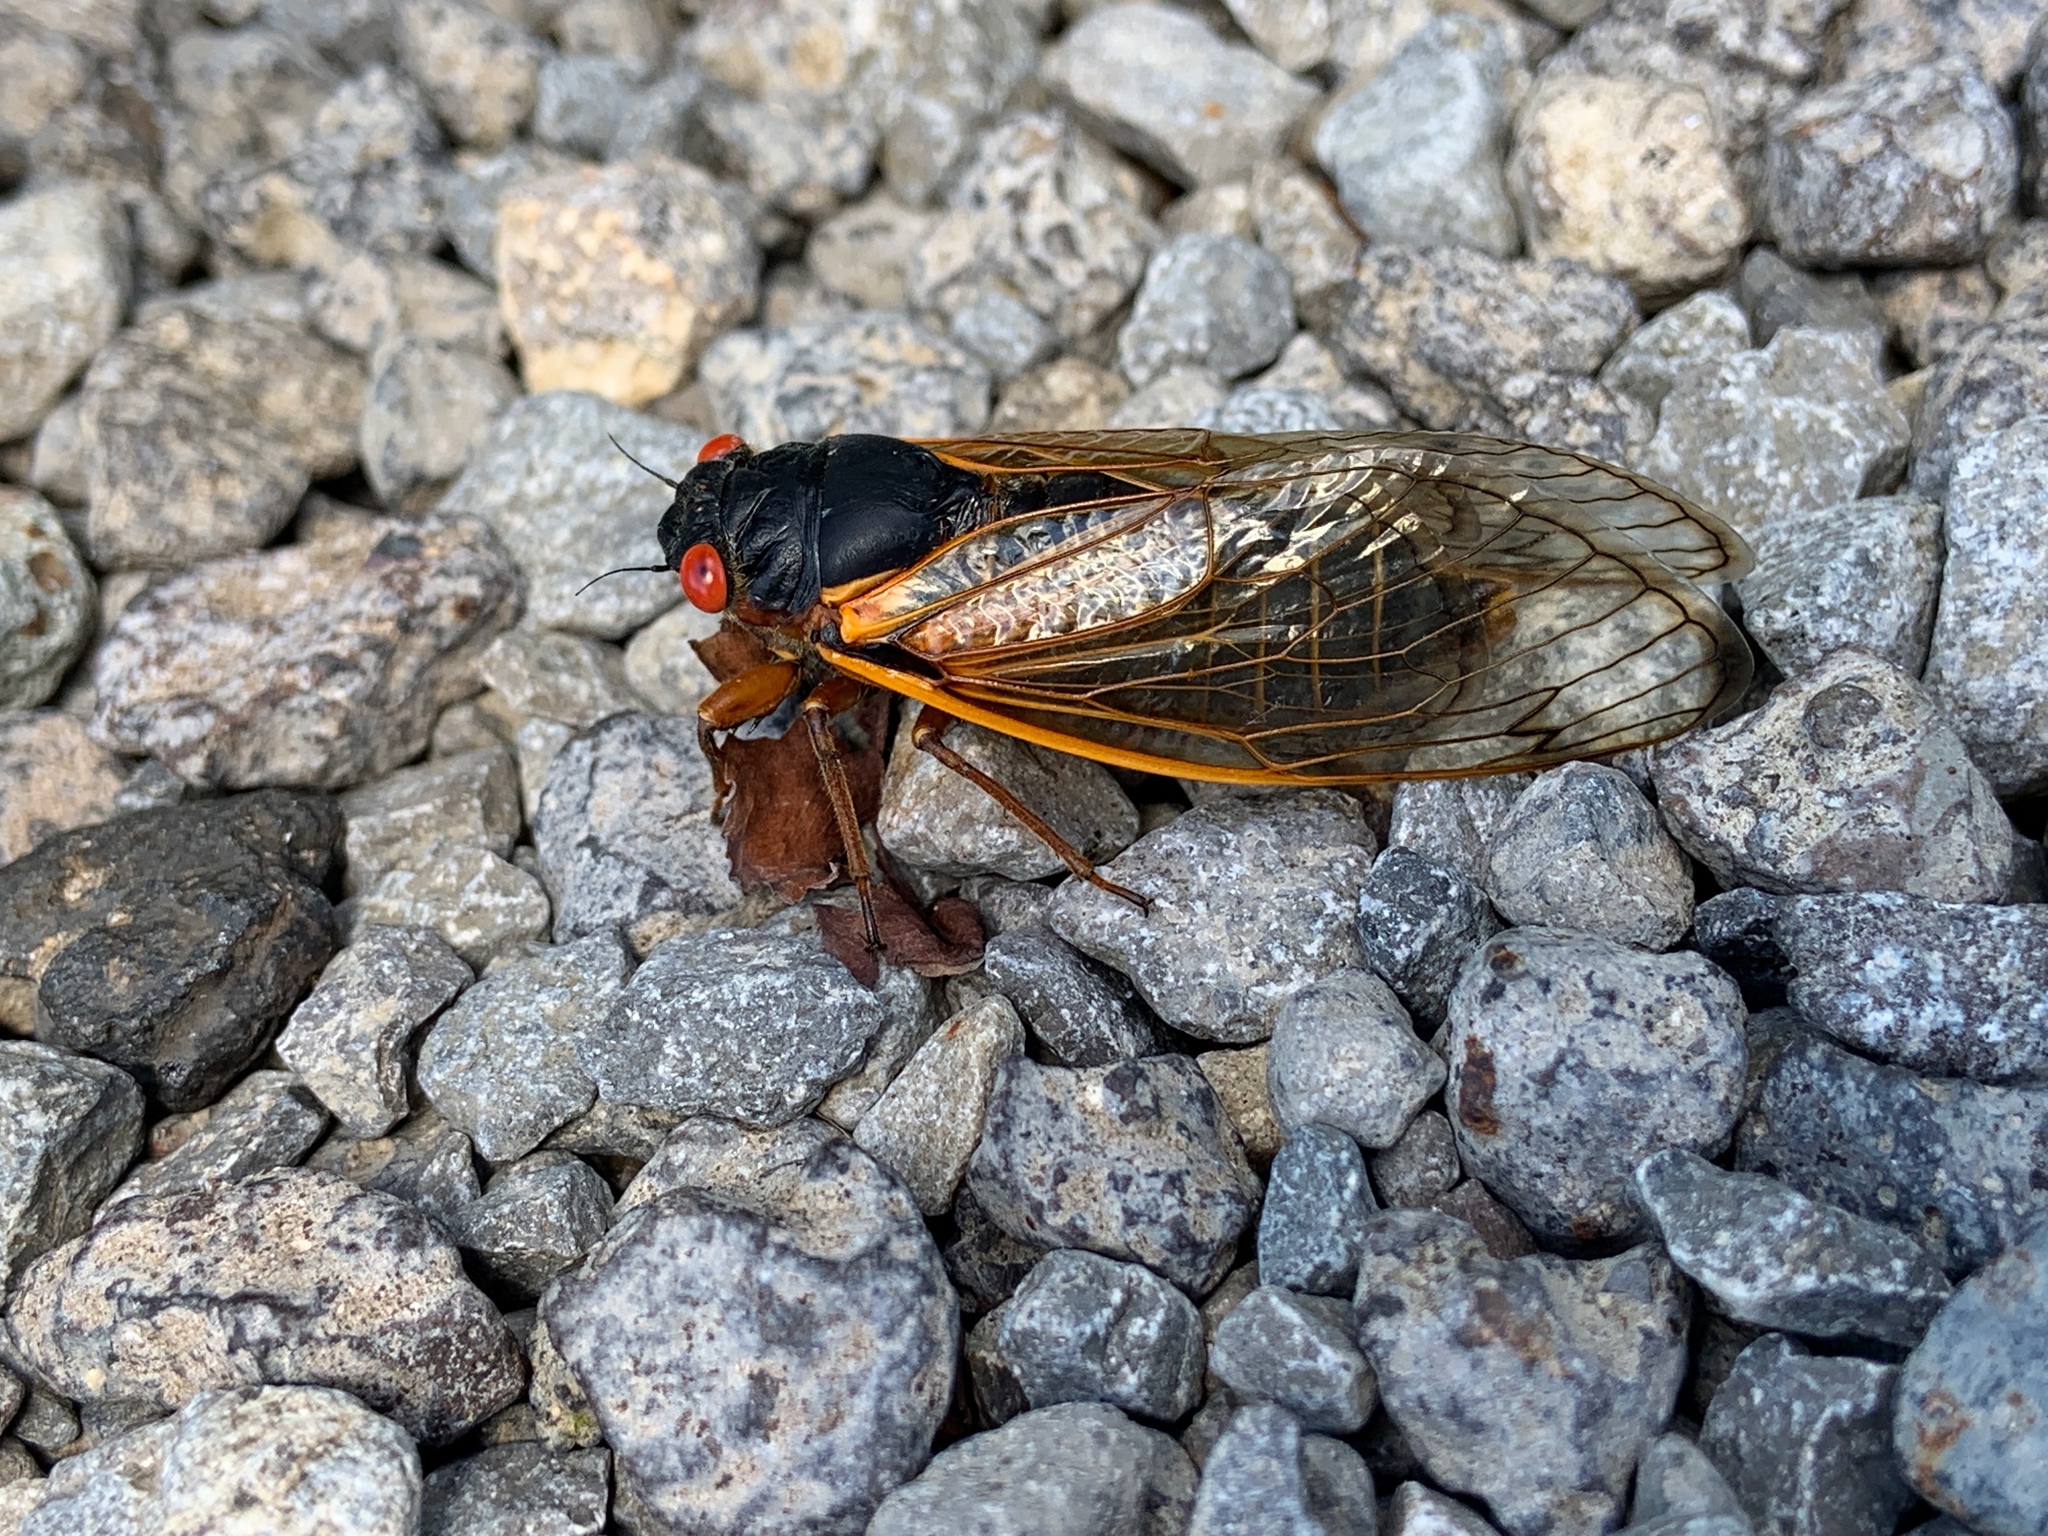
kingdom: Animalia
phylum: Arthropoda
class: Insecta
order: Hemiptera
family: Cicadidae
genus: Magicicada
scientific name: Magicicada septendecim
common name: Periodical cicada
